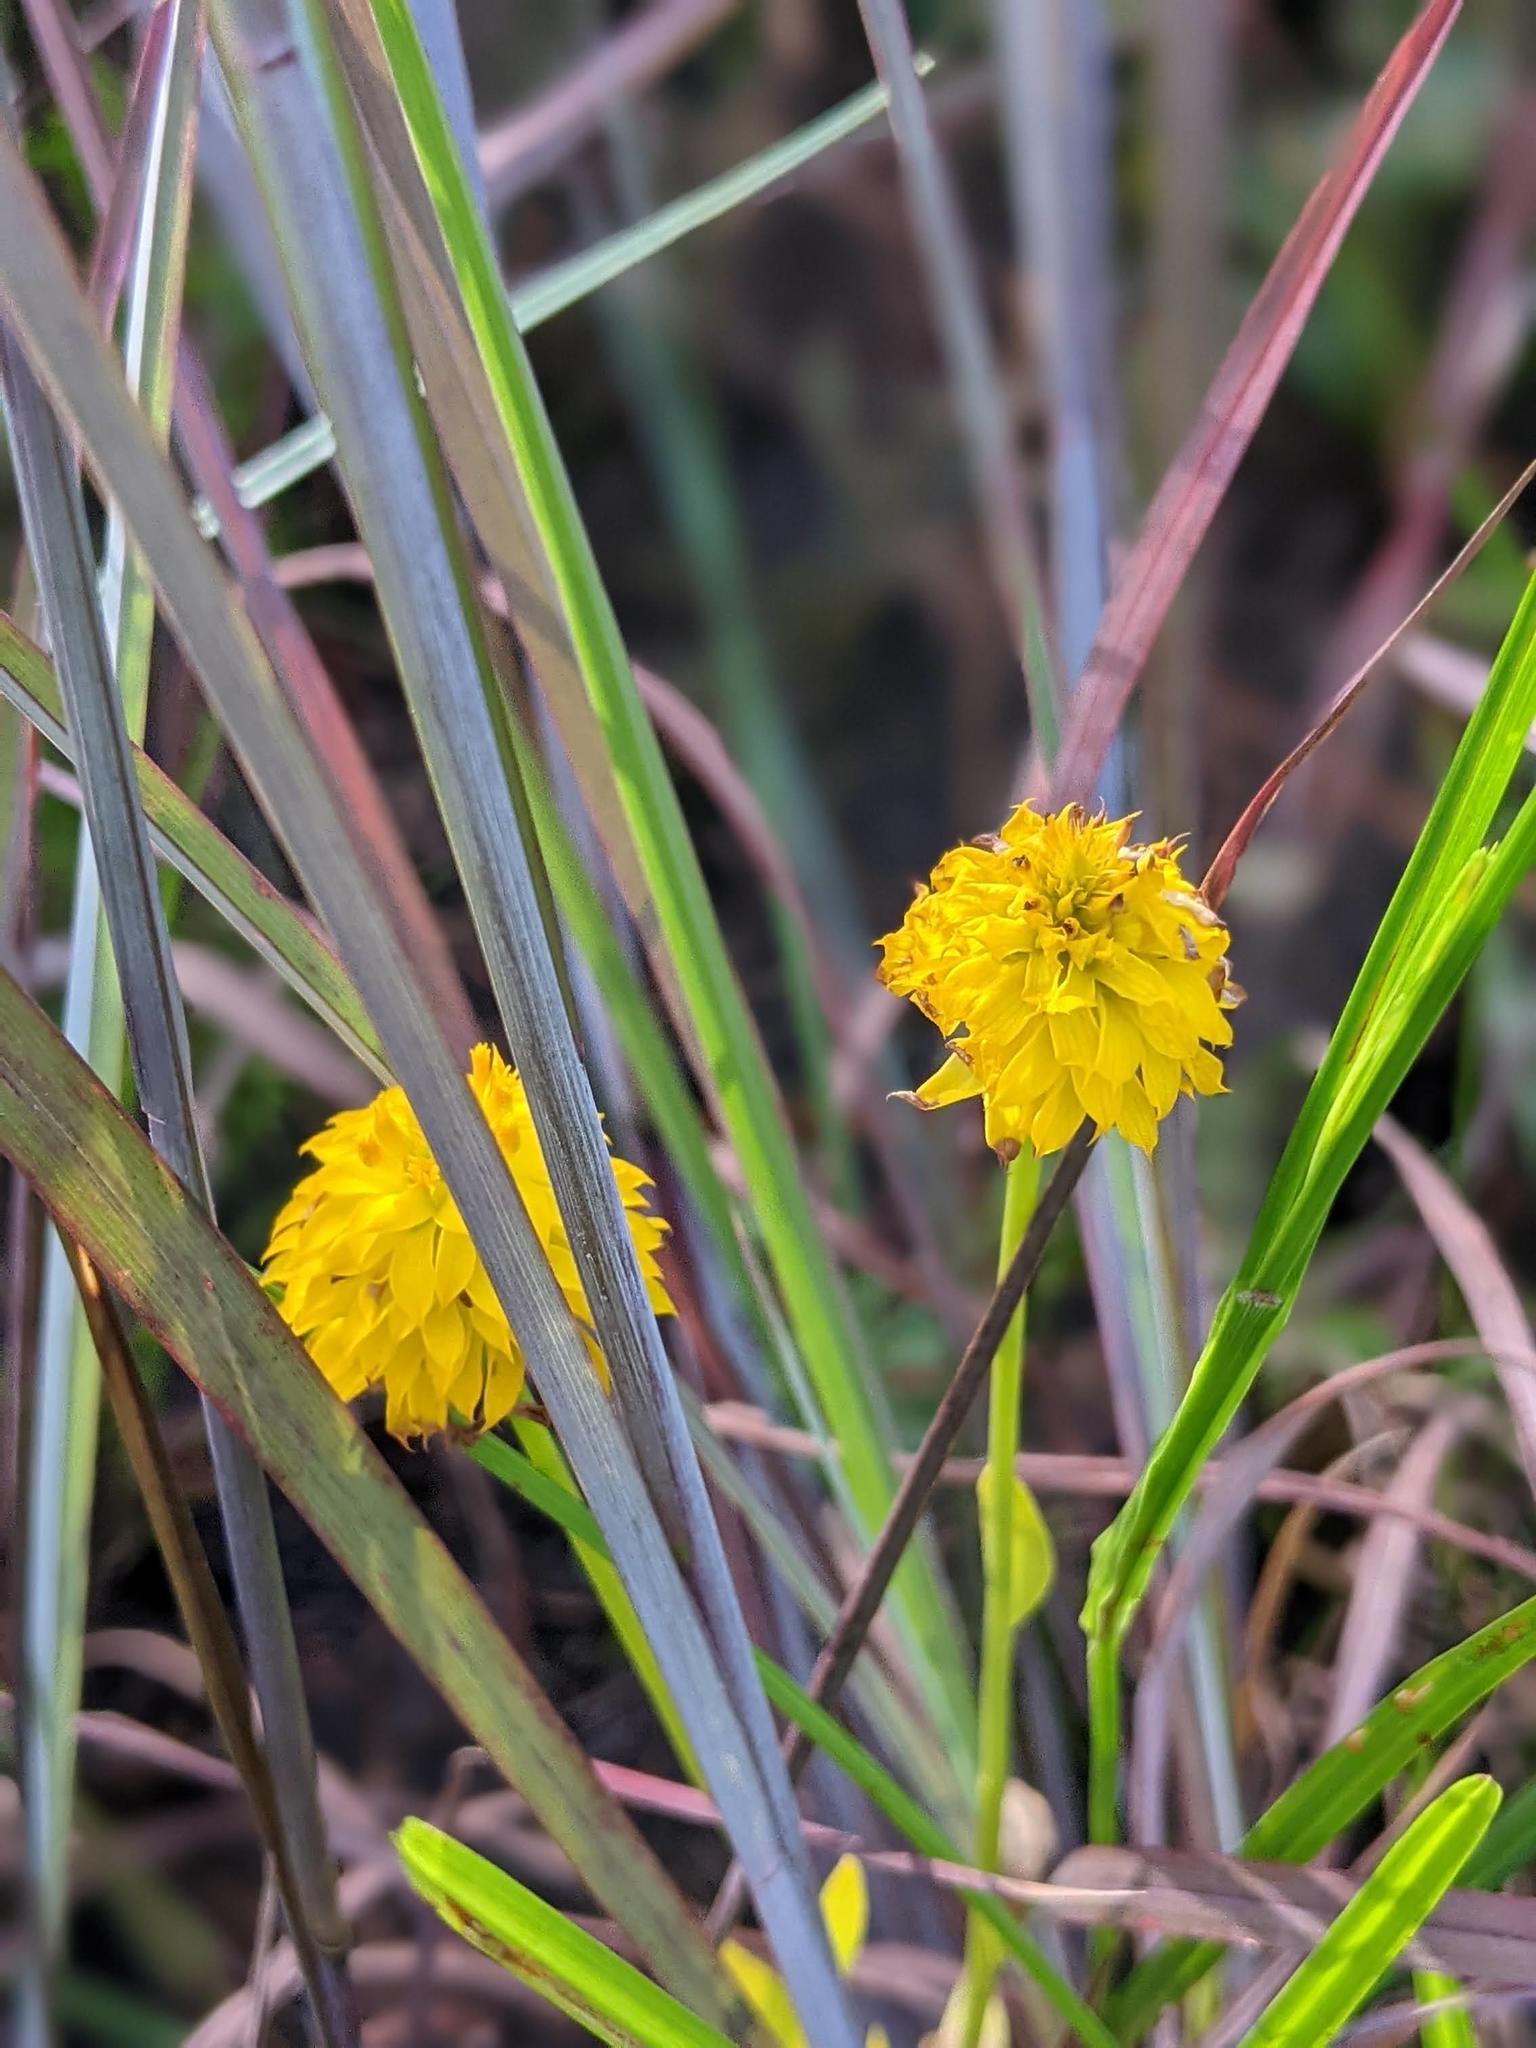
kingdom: Plantae
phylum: Tracheophyta
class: Magnoliopsida
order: Fabales
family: Polygalaceae
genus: Polygala
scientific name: Polygala rugelii
